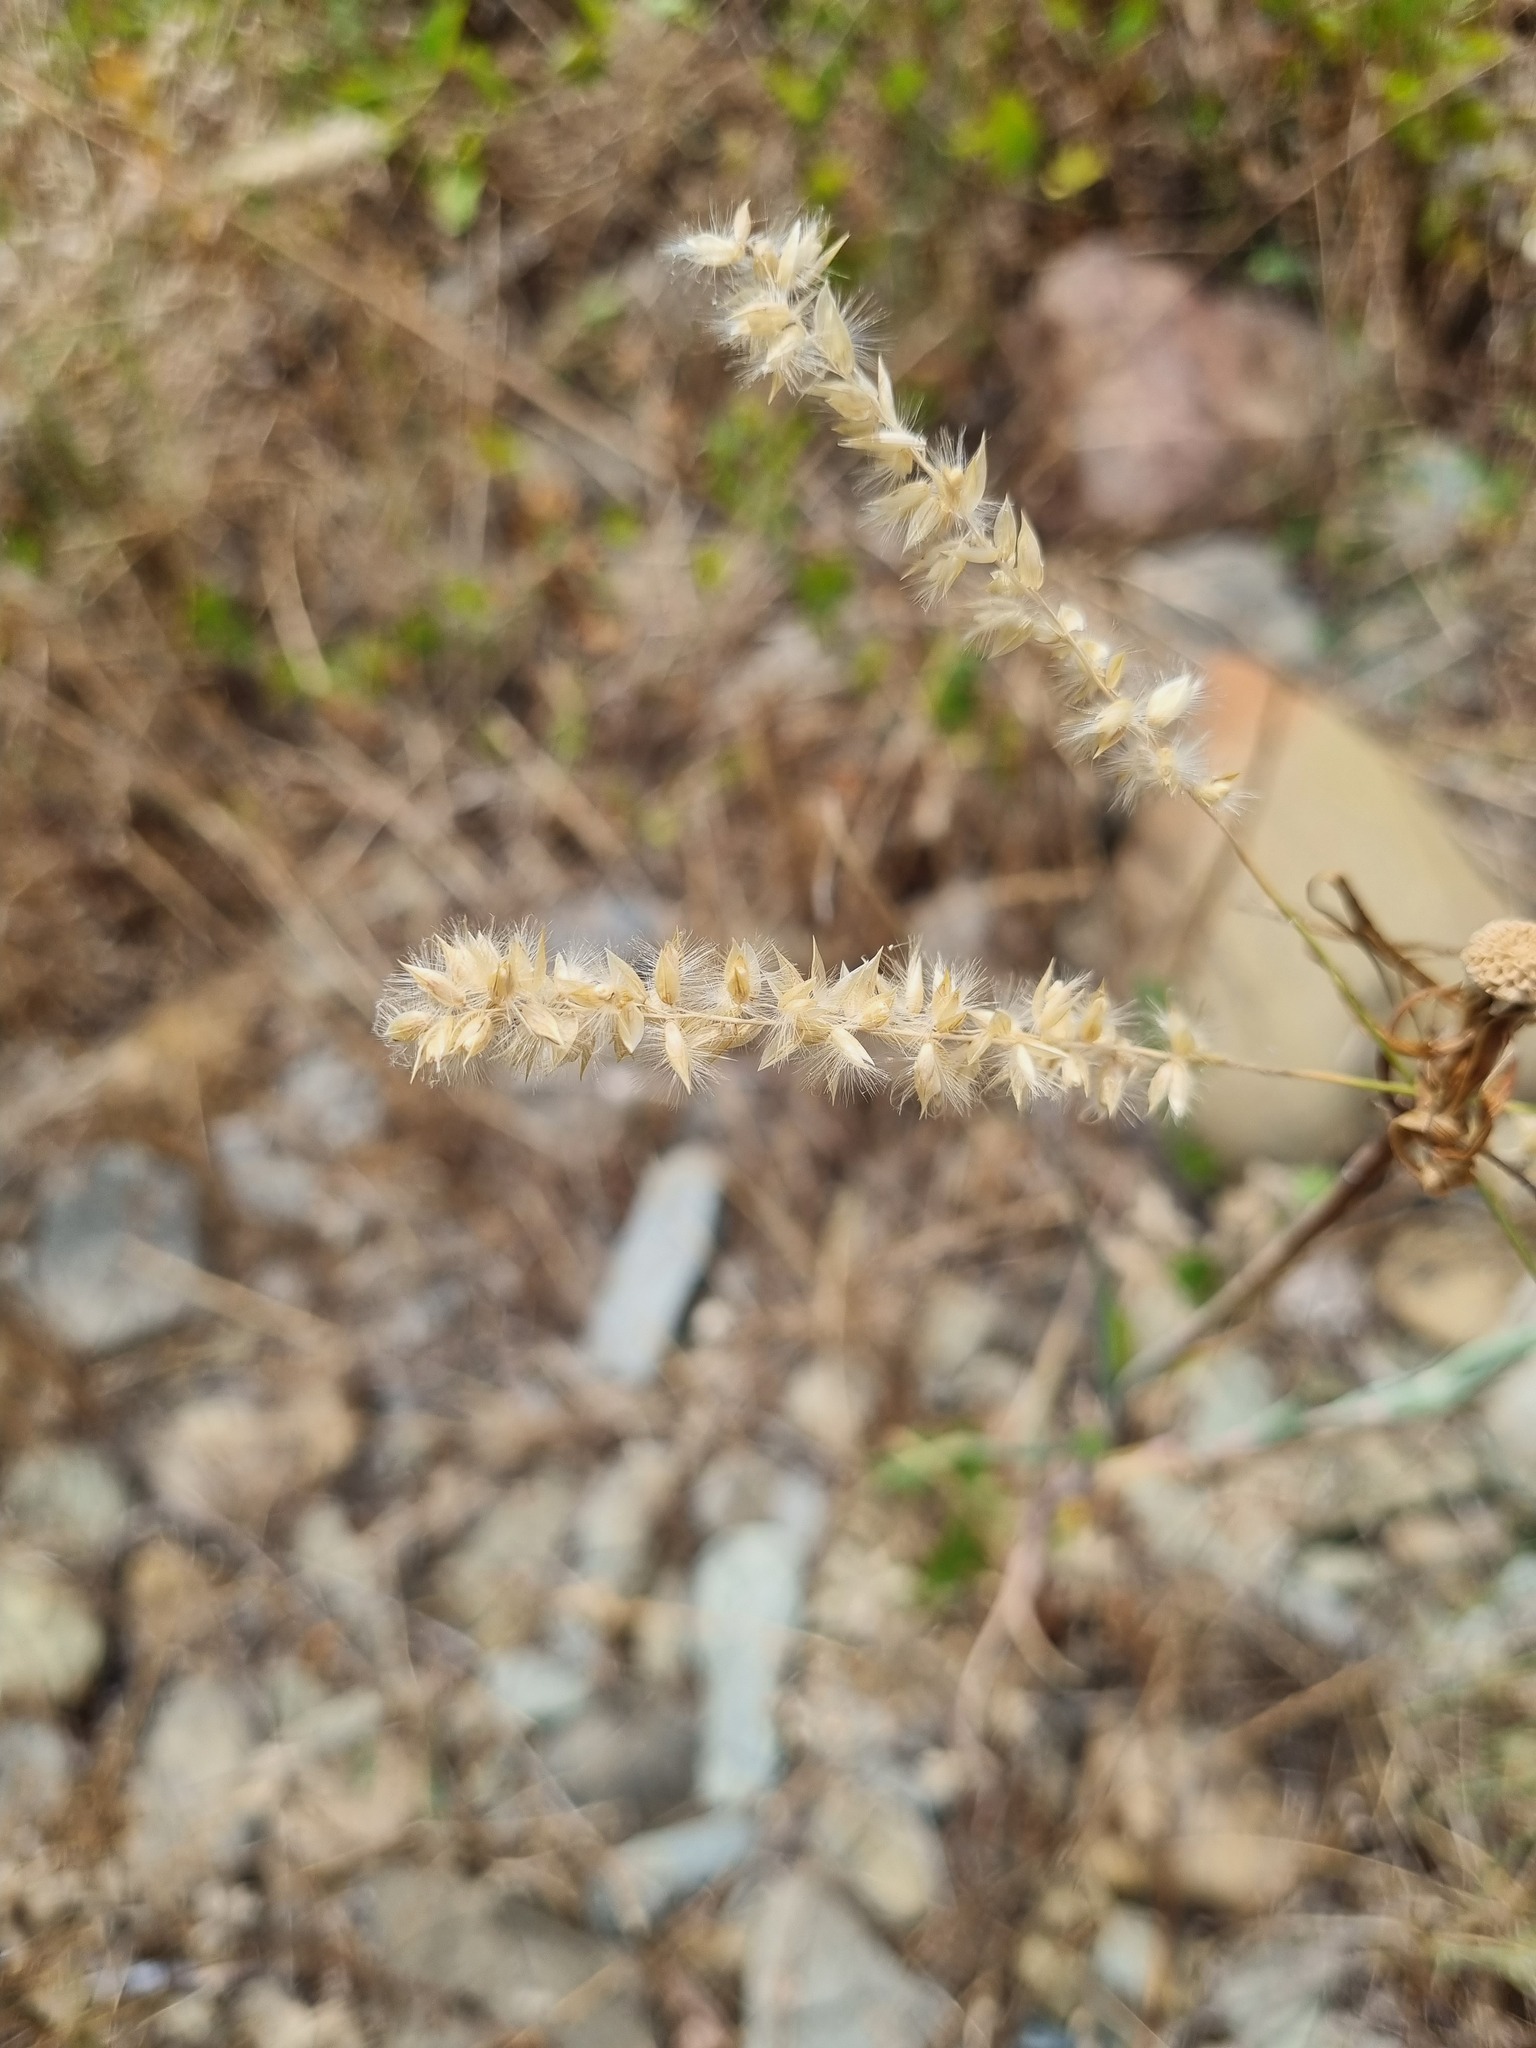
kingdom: Plantae
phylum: Tracheophyta
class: Liliopsida
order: Poales
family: Poaceae
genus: Melica
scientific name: Melica transsilvanica
